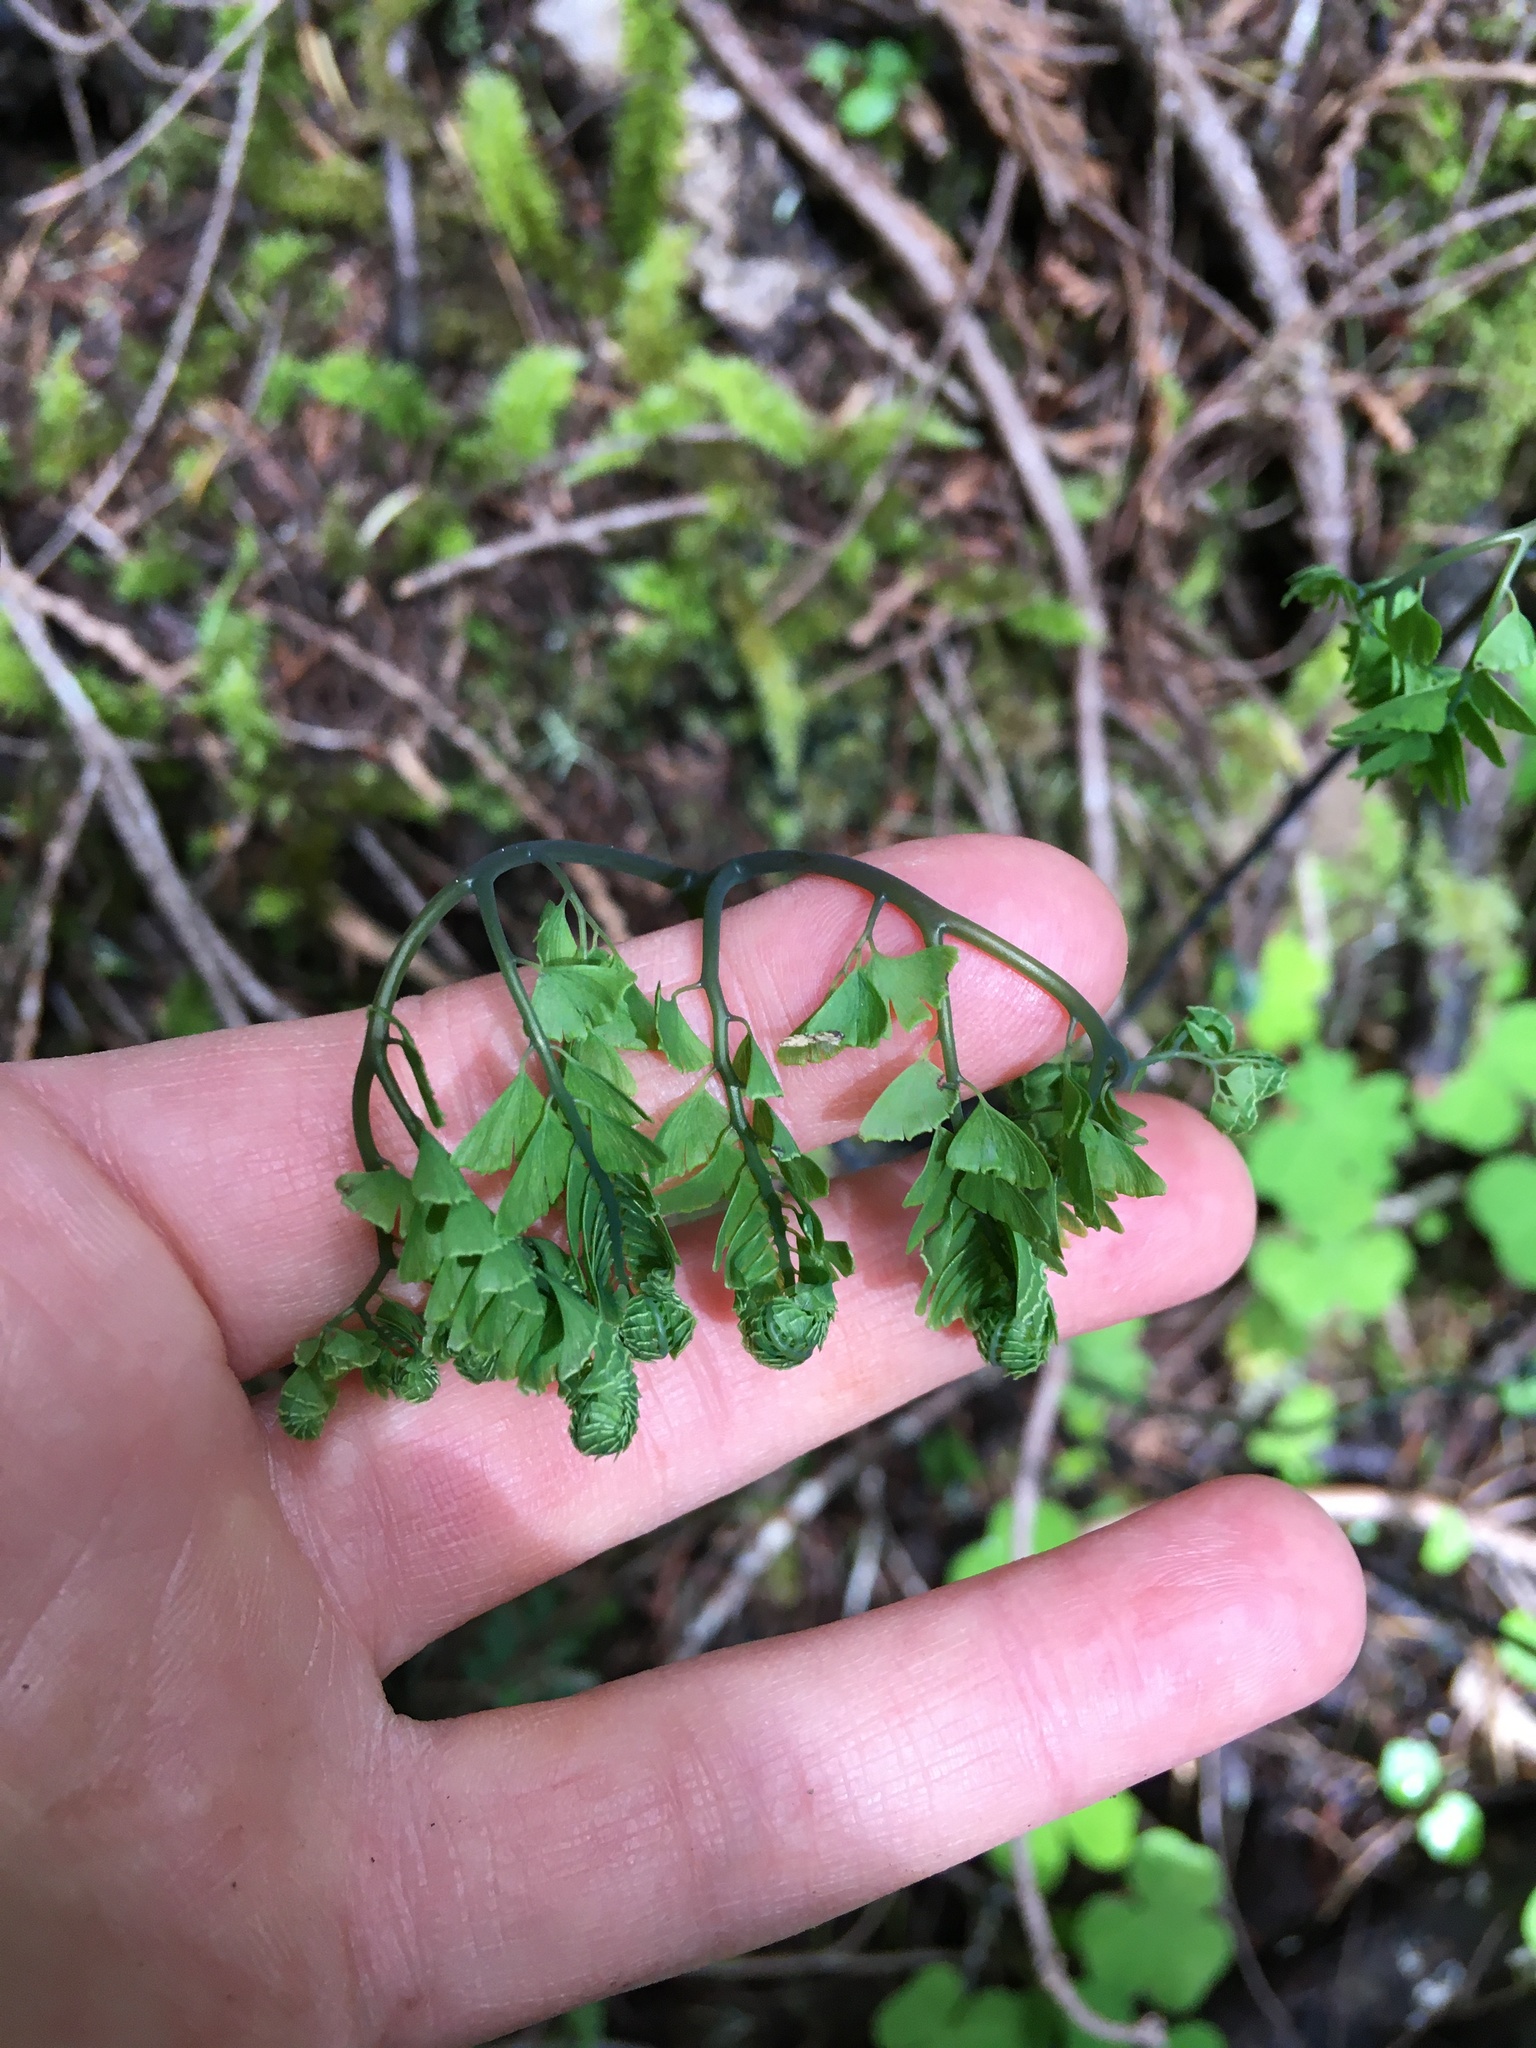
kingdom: Plantae
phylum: Tracheophyta
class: Polypodiopsida
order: Polypodiales
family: Pteridaceae
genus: Adiantum
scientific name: Adiantum aleuticum
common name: Aleutian maidenhair fern
